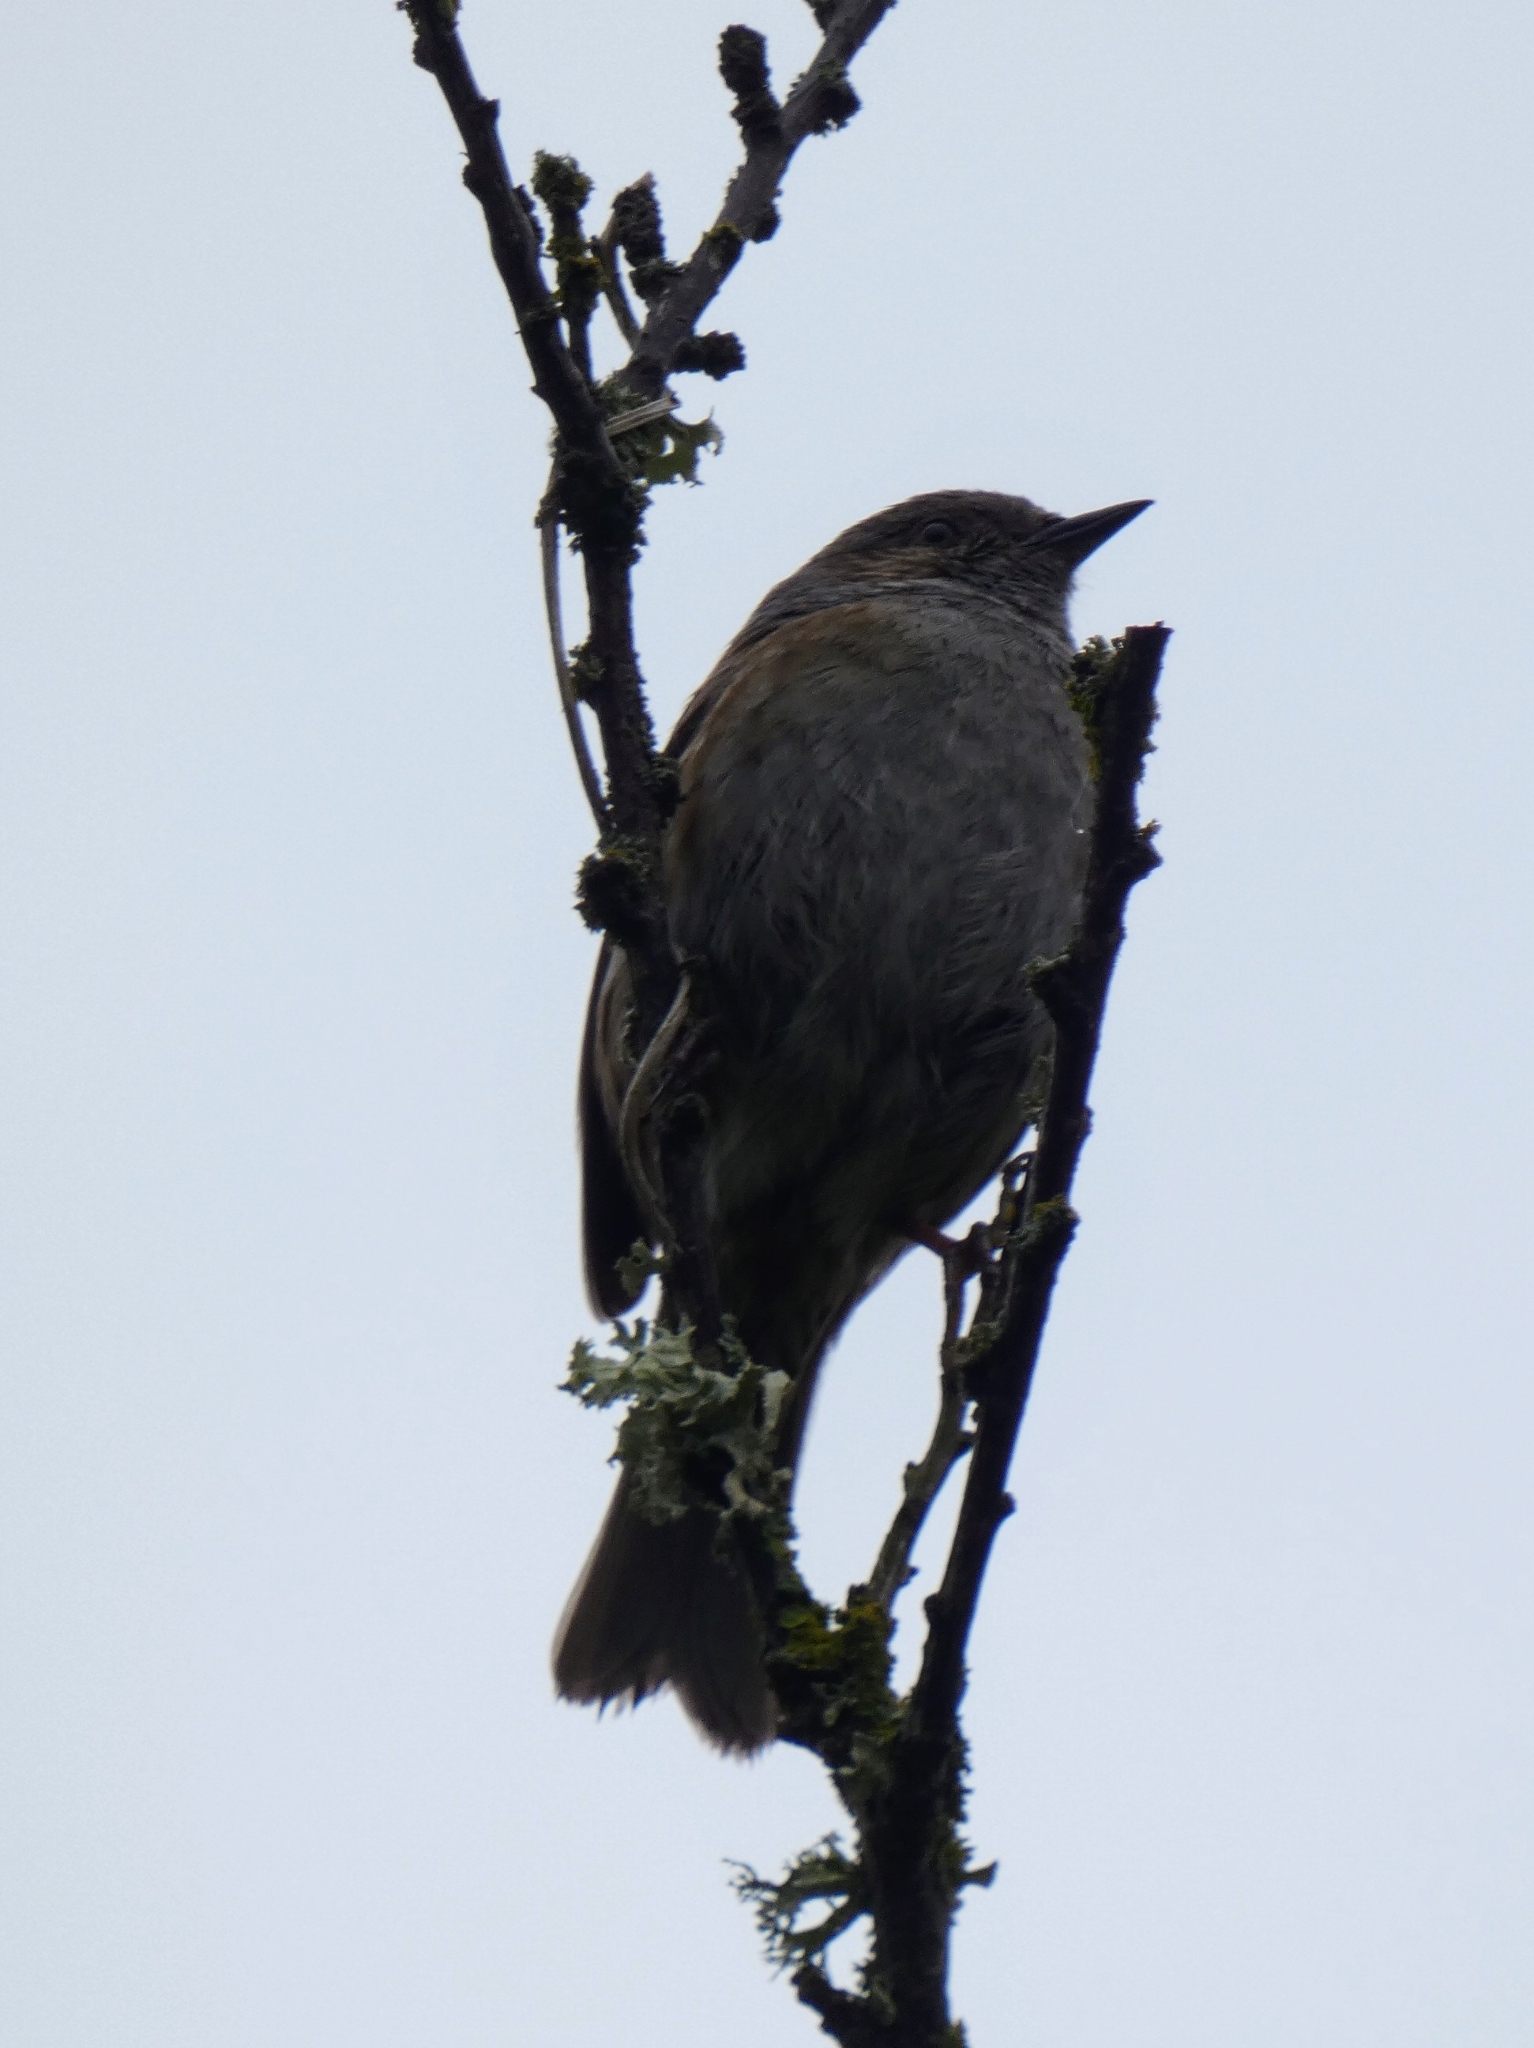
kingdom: Animalia
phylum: Chordata
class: Aves
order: Passeriformes
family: Prunellidae
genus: Prunella
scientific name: Prunella modularis
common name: Dunnock
